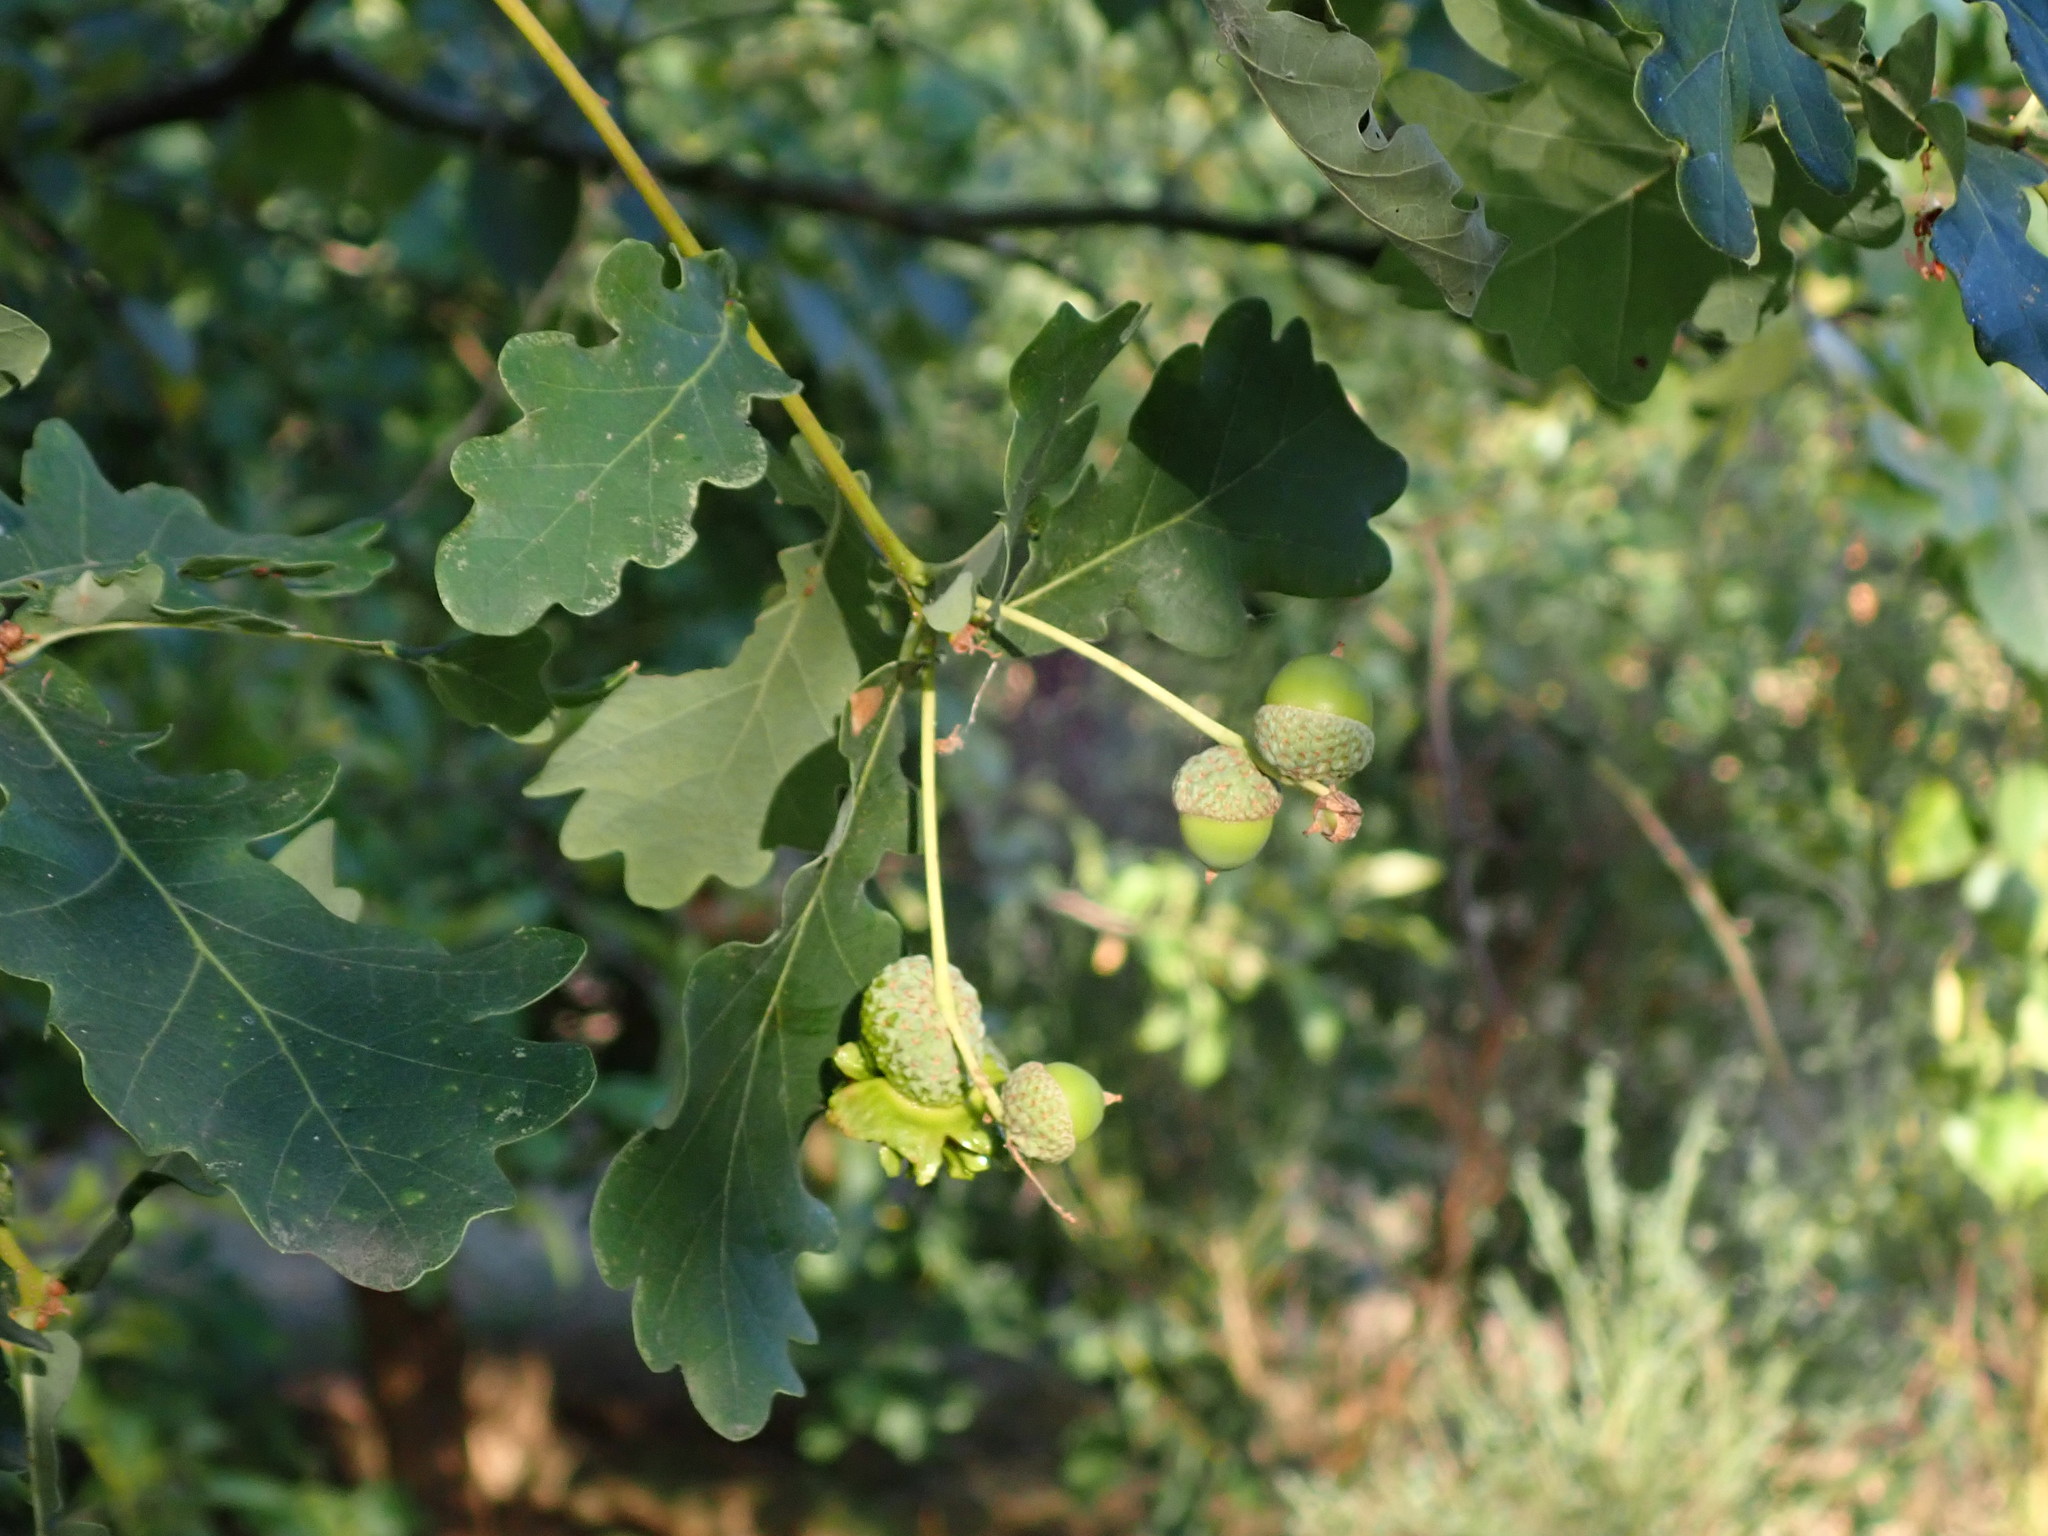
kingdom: Plantae
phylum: Tracheophyta
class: Magnoliopsida
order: Fagales
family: Fagaceae
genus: Quercus
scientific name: Quercus robur
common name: Pedunculate oak
